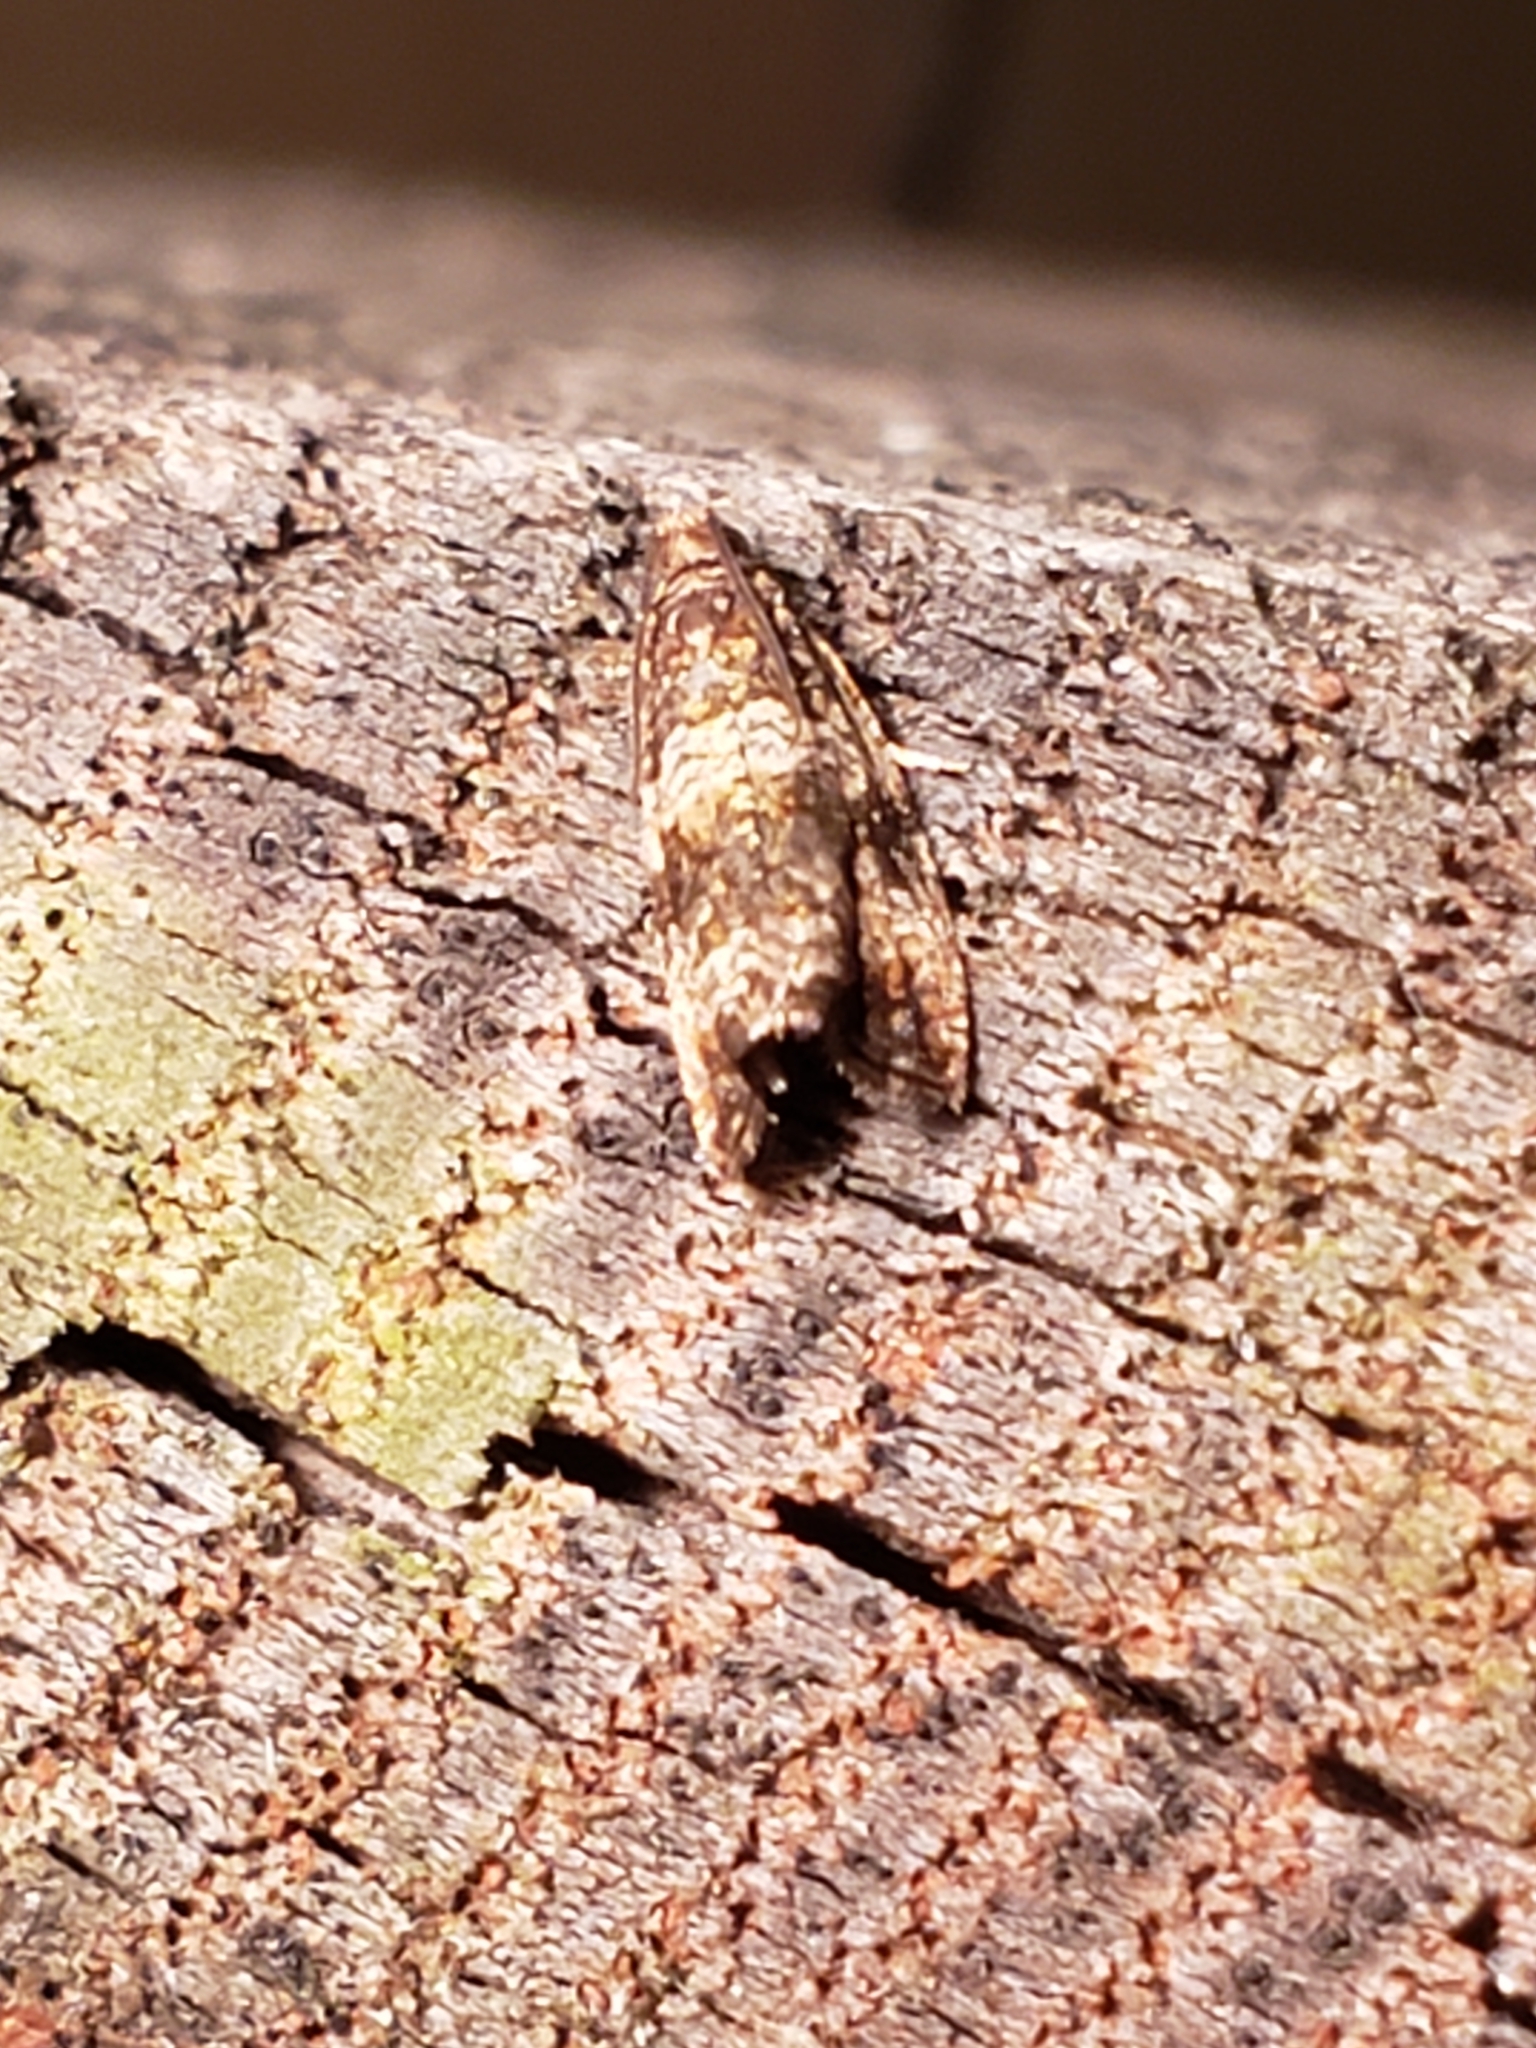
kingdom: Animalia
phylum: Arthropoda
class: Insecta
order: Lepidoptera
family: Tortricidae
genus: Celypha
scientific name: Celypha cespitana
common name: Thyme marble
